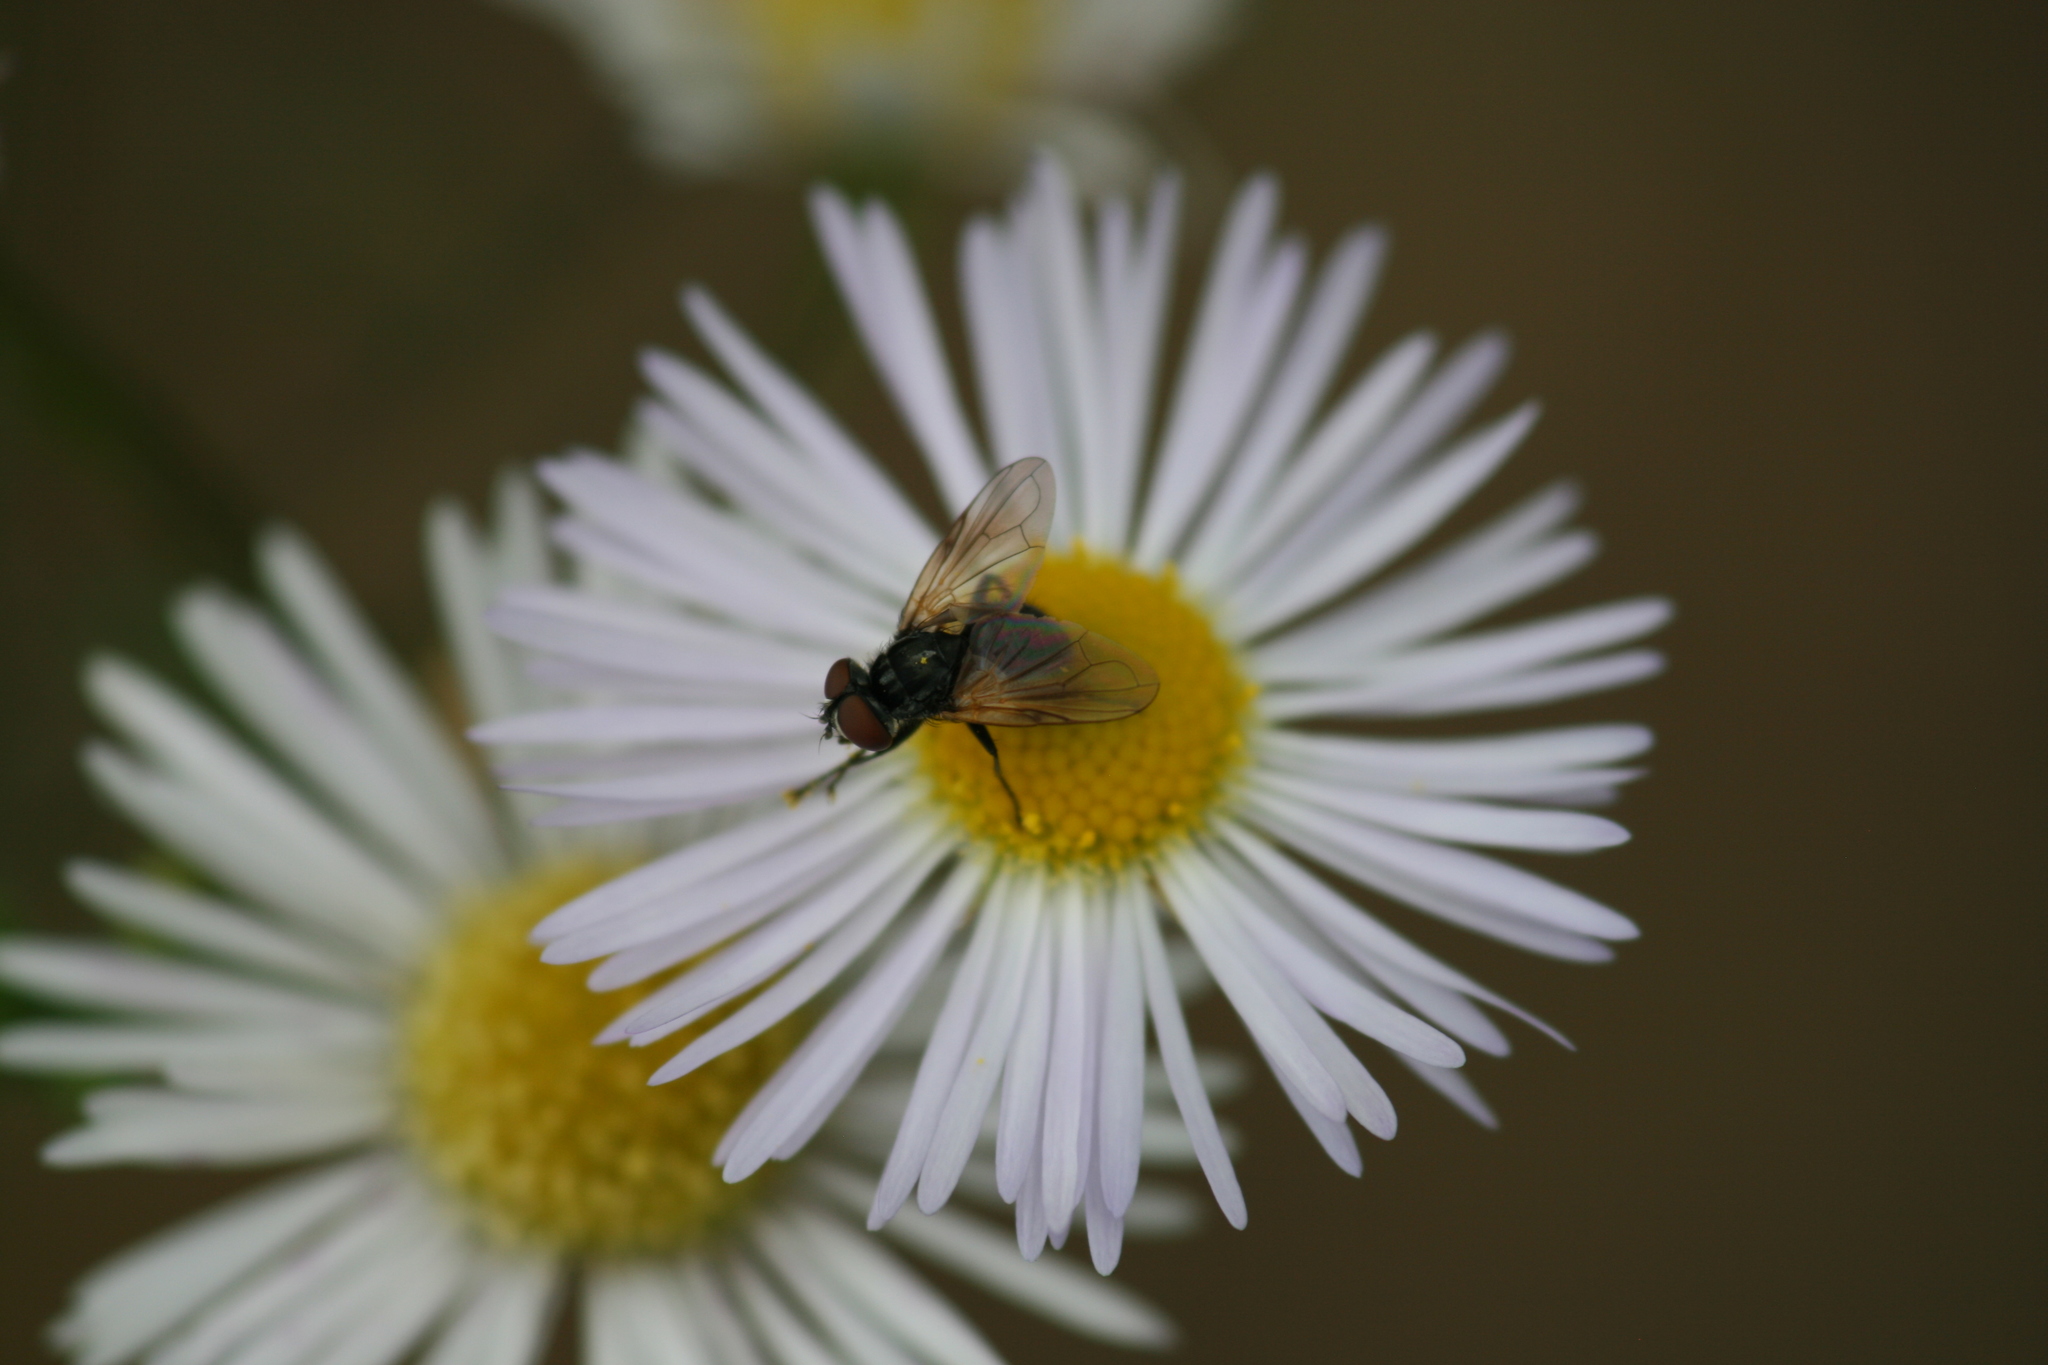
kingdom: Animalia
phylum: Arthropoda
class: Insecta
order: Diptera
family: Tachinidae
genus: Phasia
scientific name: Phasia obesa
